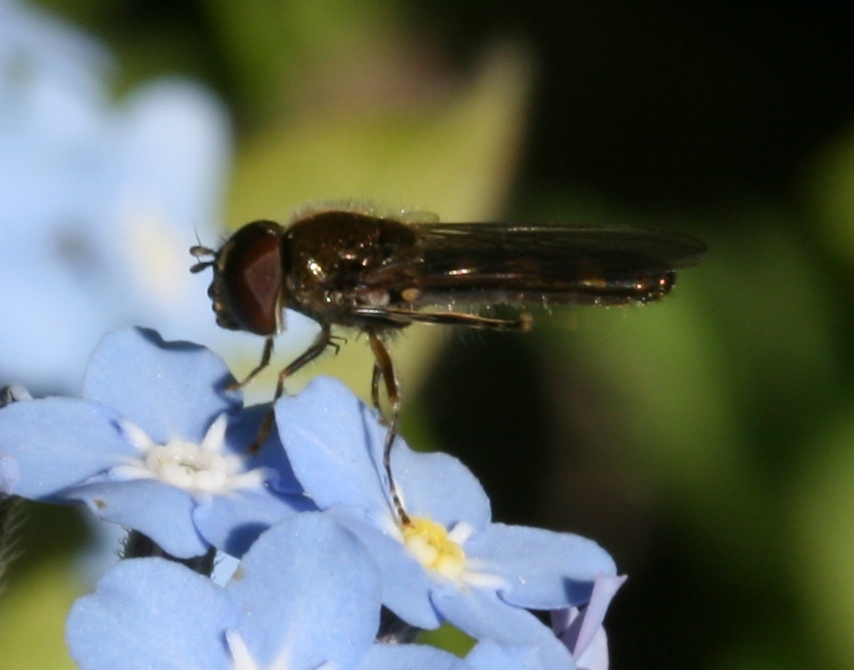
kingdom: Animalia
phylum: Arthropoda
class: Insecta
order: Diptera
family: Syrphidae
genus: Platycheirus
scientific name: Platycheirus
